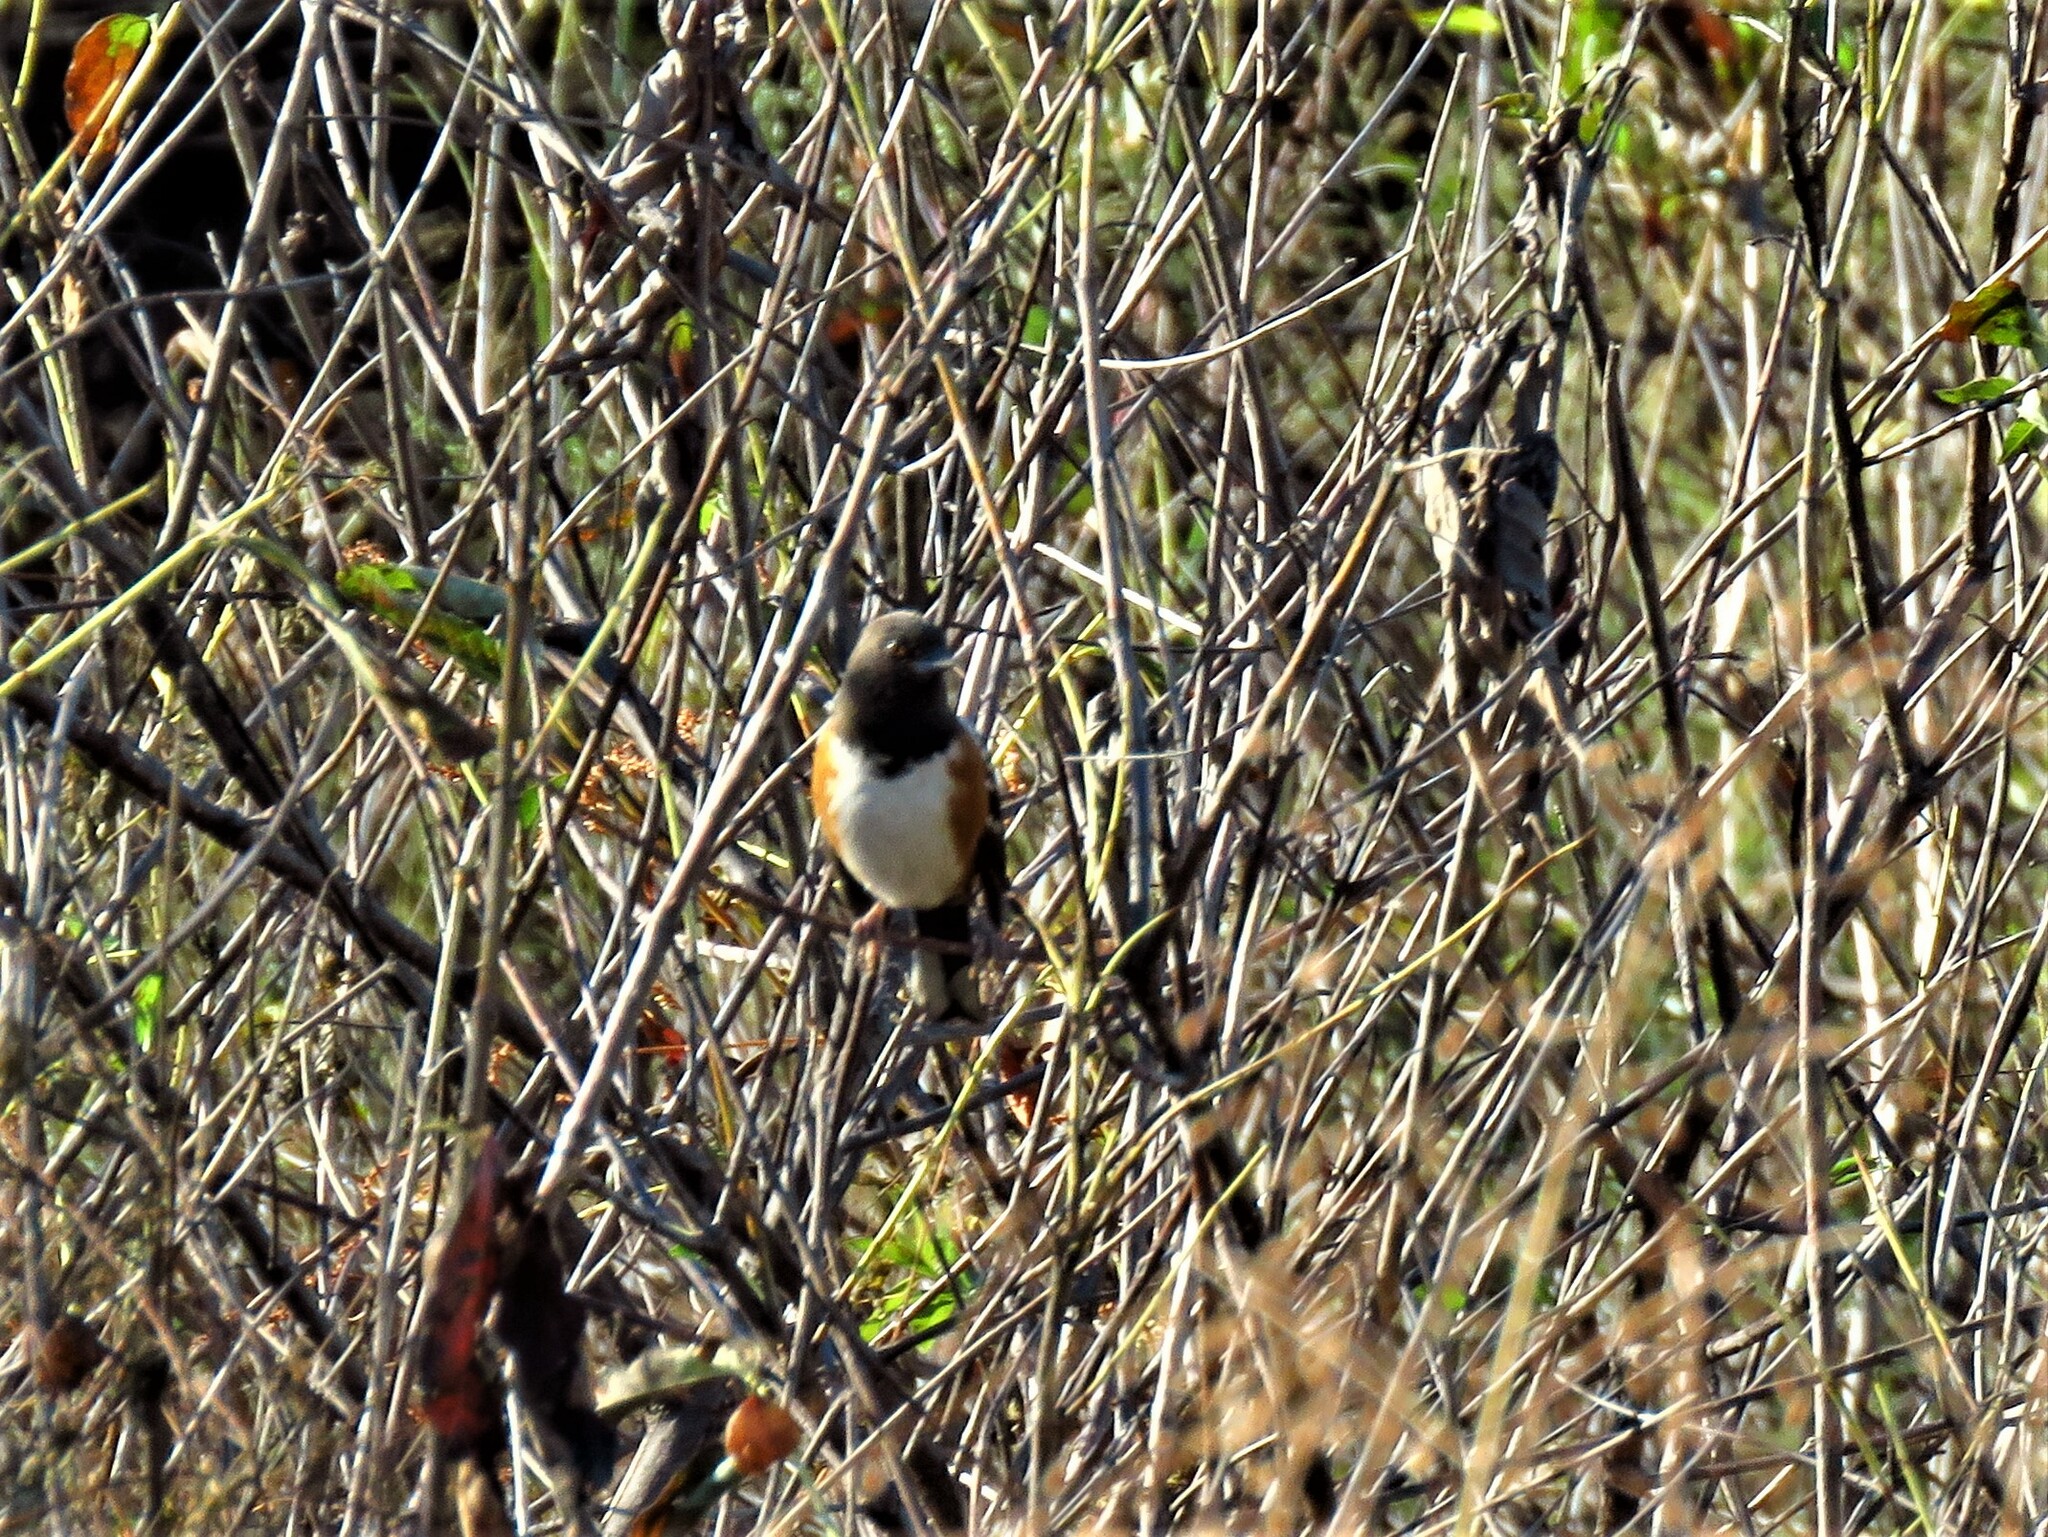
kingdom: Animalia
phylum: Chordata
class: Aves
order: Passeriformes
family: Passerellidae
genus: Pipilo
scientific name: Pipilo maculatus
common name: Spotted towhee
